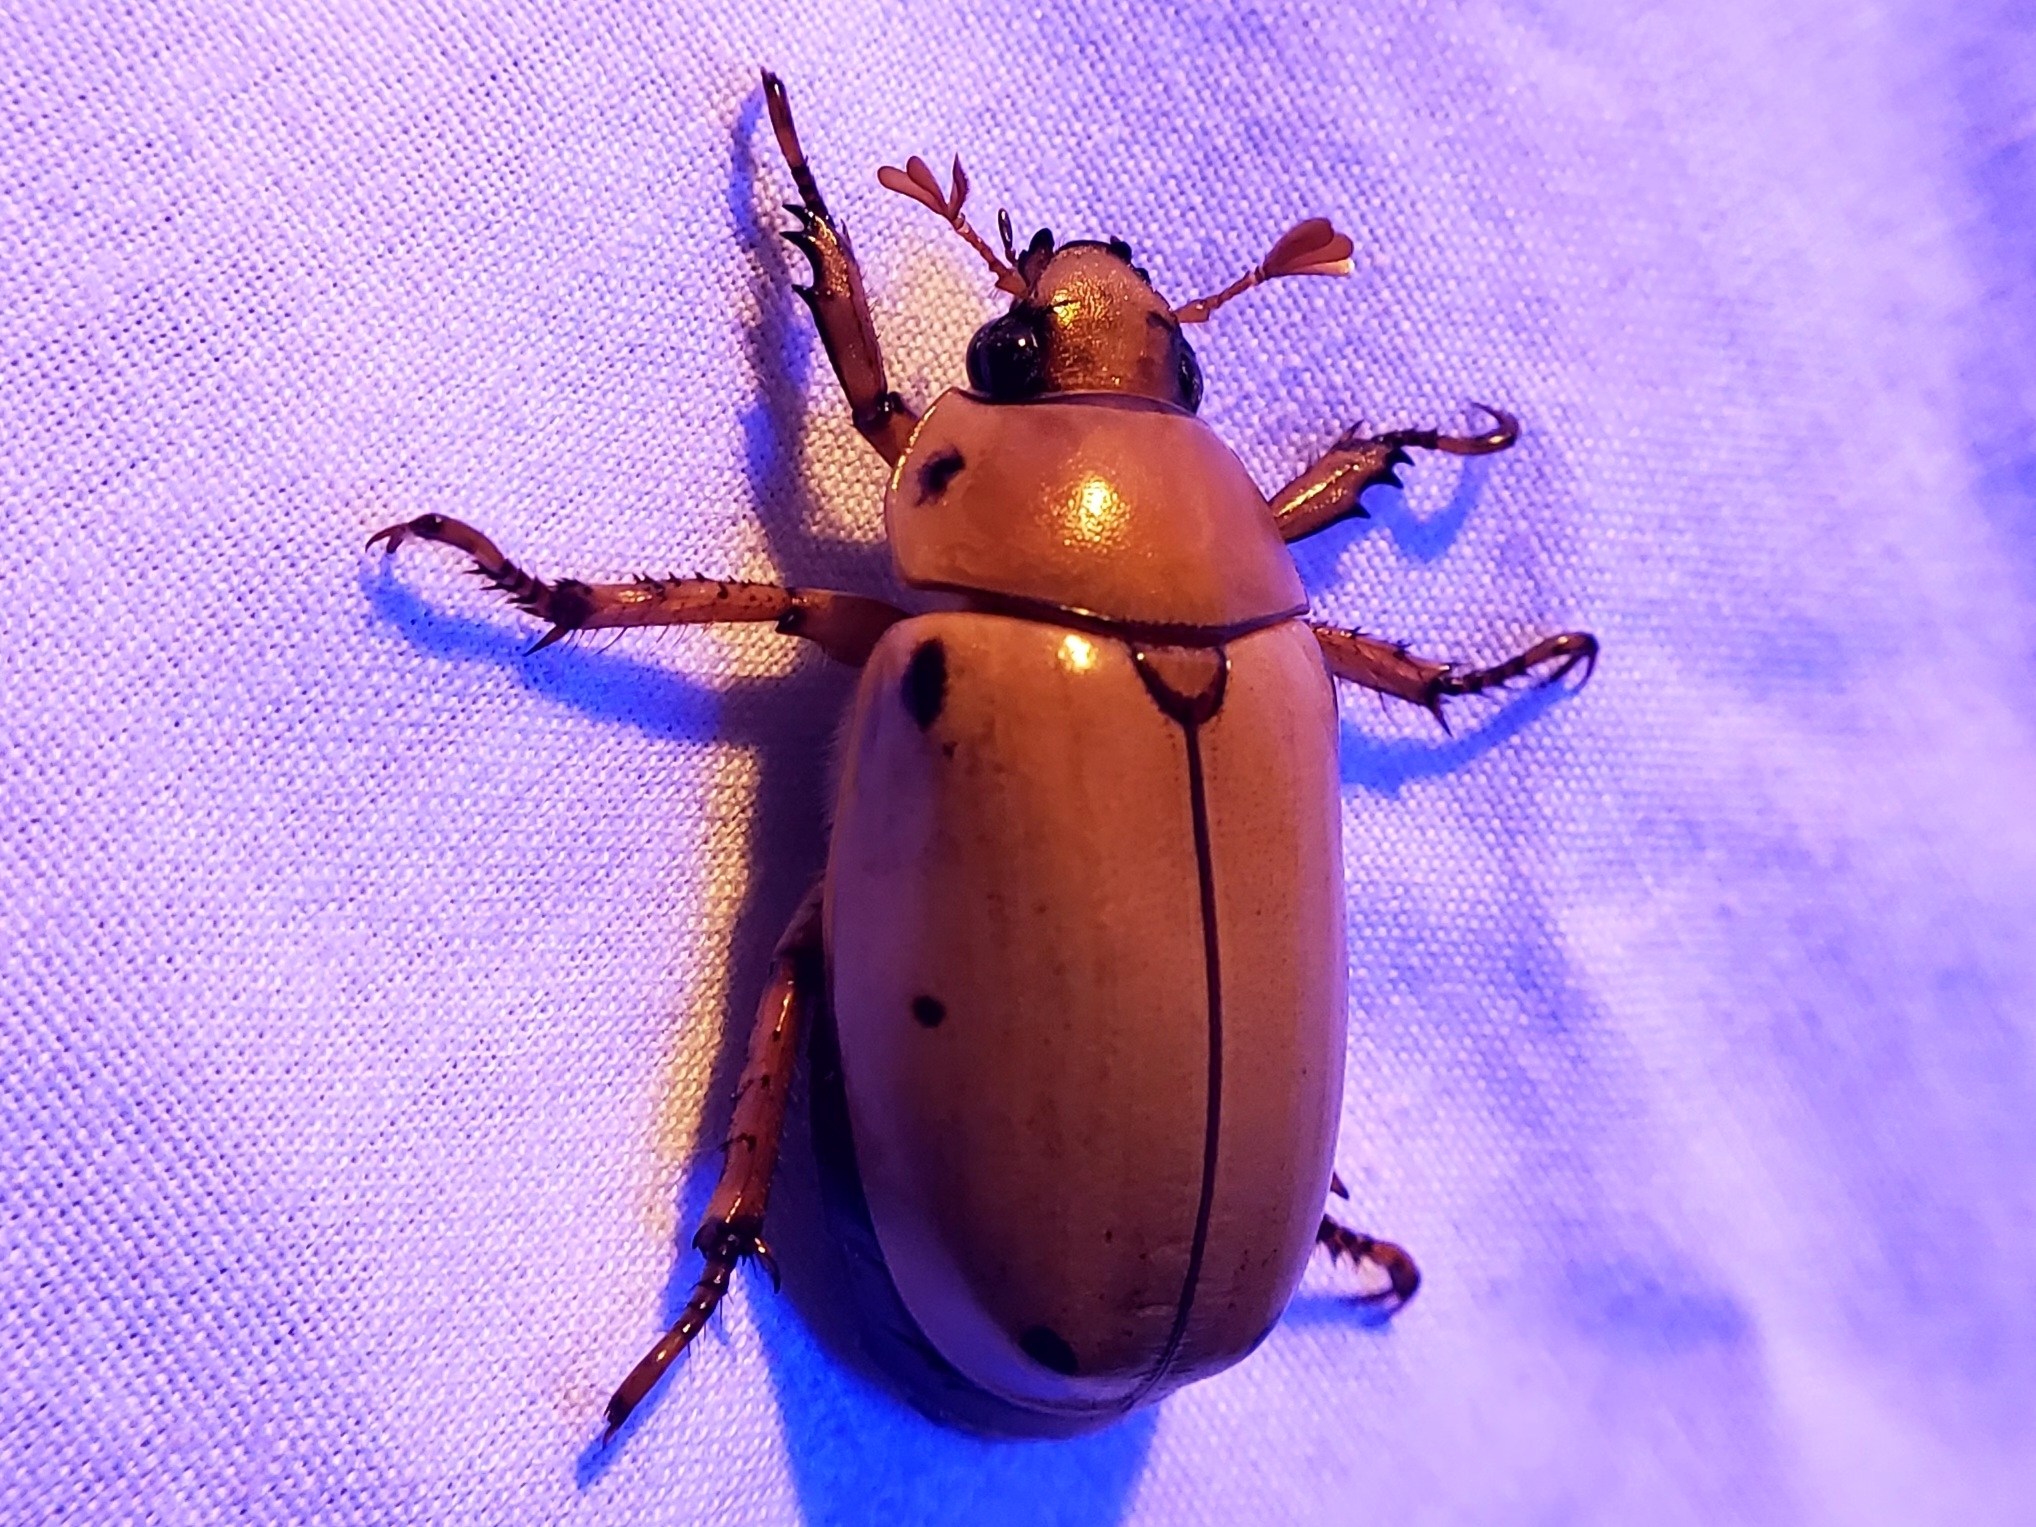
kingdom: Animalia
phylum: Arthropoda
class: Insecta
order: Coleoptera
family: Scarabaeidae
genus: Pelidnota
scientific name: Pelidnota punctata
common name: Grapevine beetle
